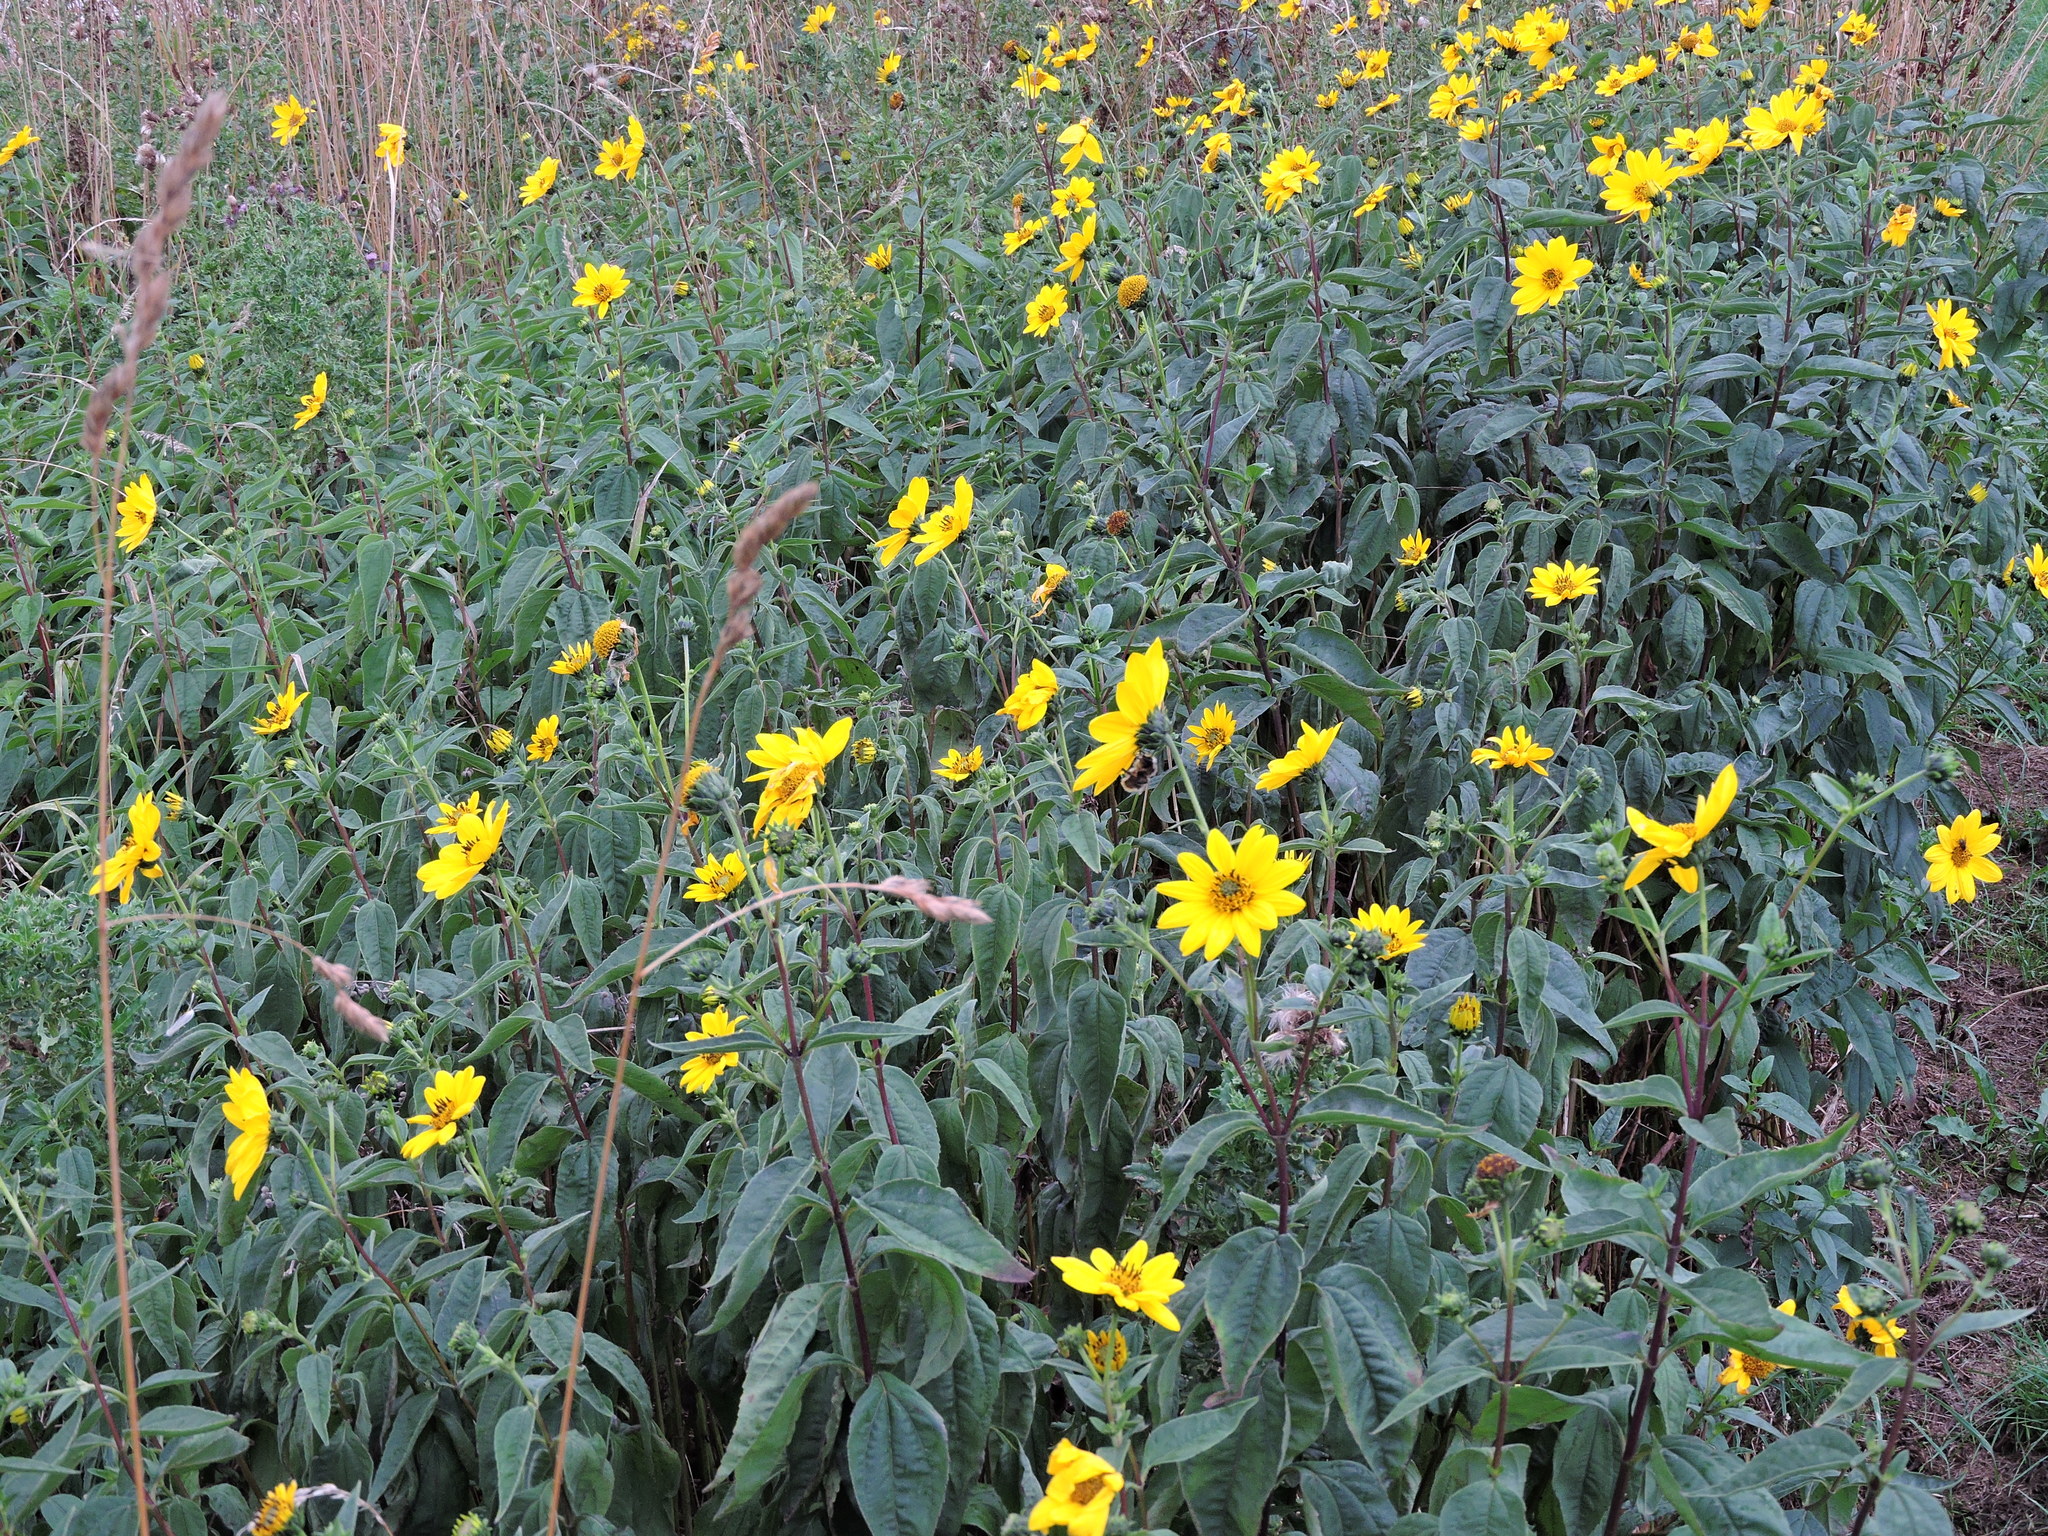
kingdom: Plantae
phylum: Tracheophyta
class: Magnoliopsida
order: Asterales
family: Asteraceae
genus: Helianthus
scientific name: Helianthus laetiflorus
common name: Perennial sunflower
